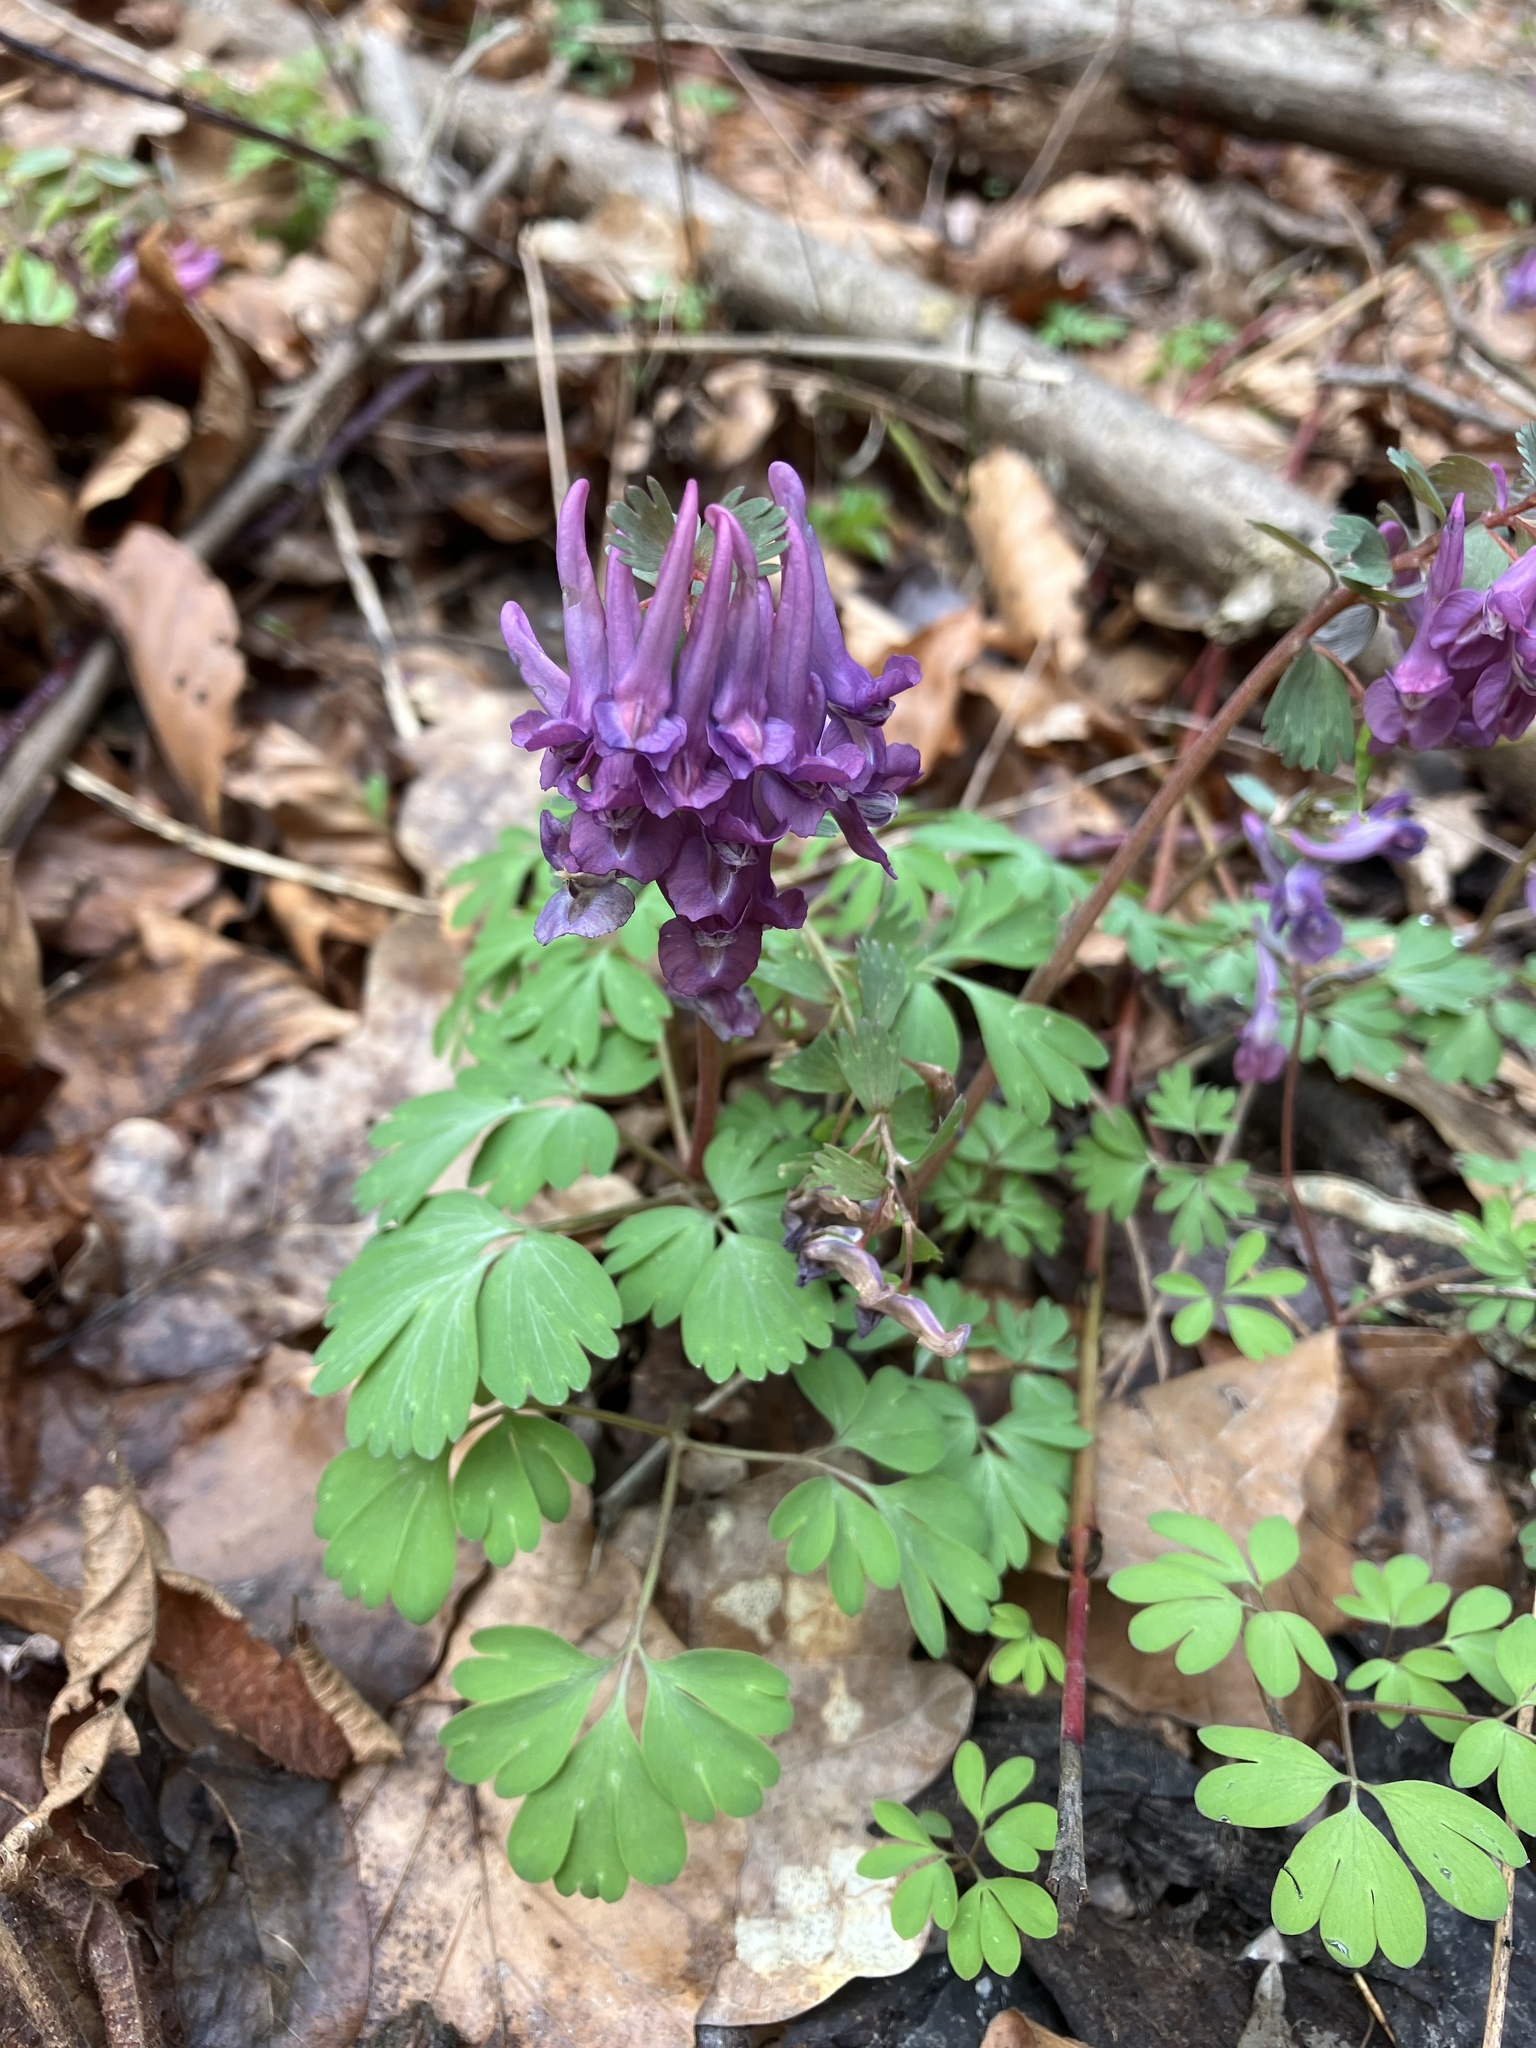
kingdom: Plantae
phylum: Tracheophyta
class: Magnoliopsida
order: Ranunculales
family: Papaveraceae
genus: Corydalis
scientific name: Corydalis solida
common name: Bird-in-a-bush
